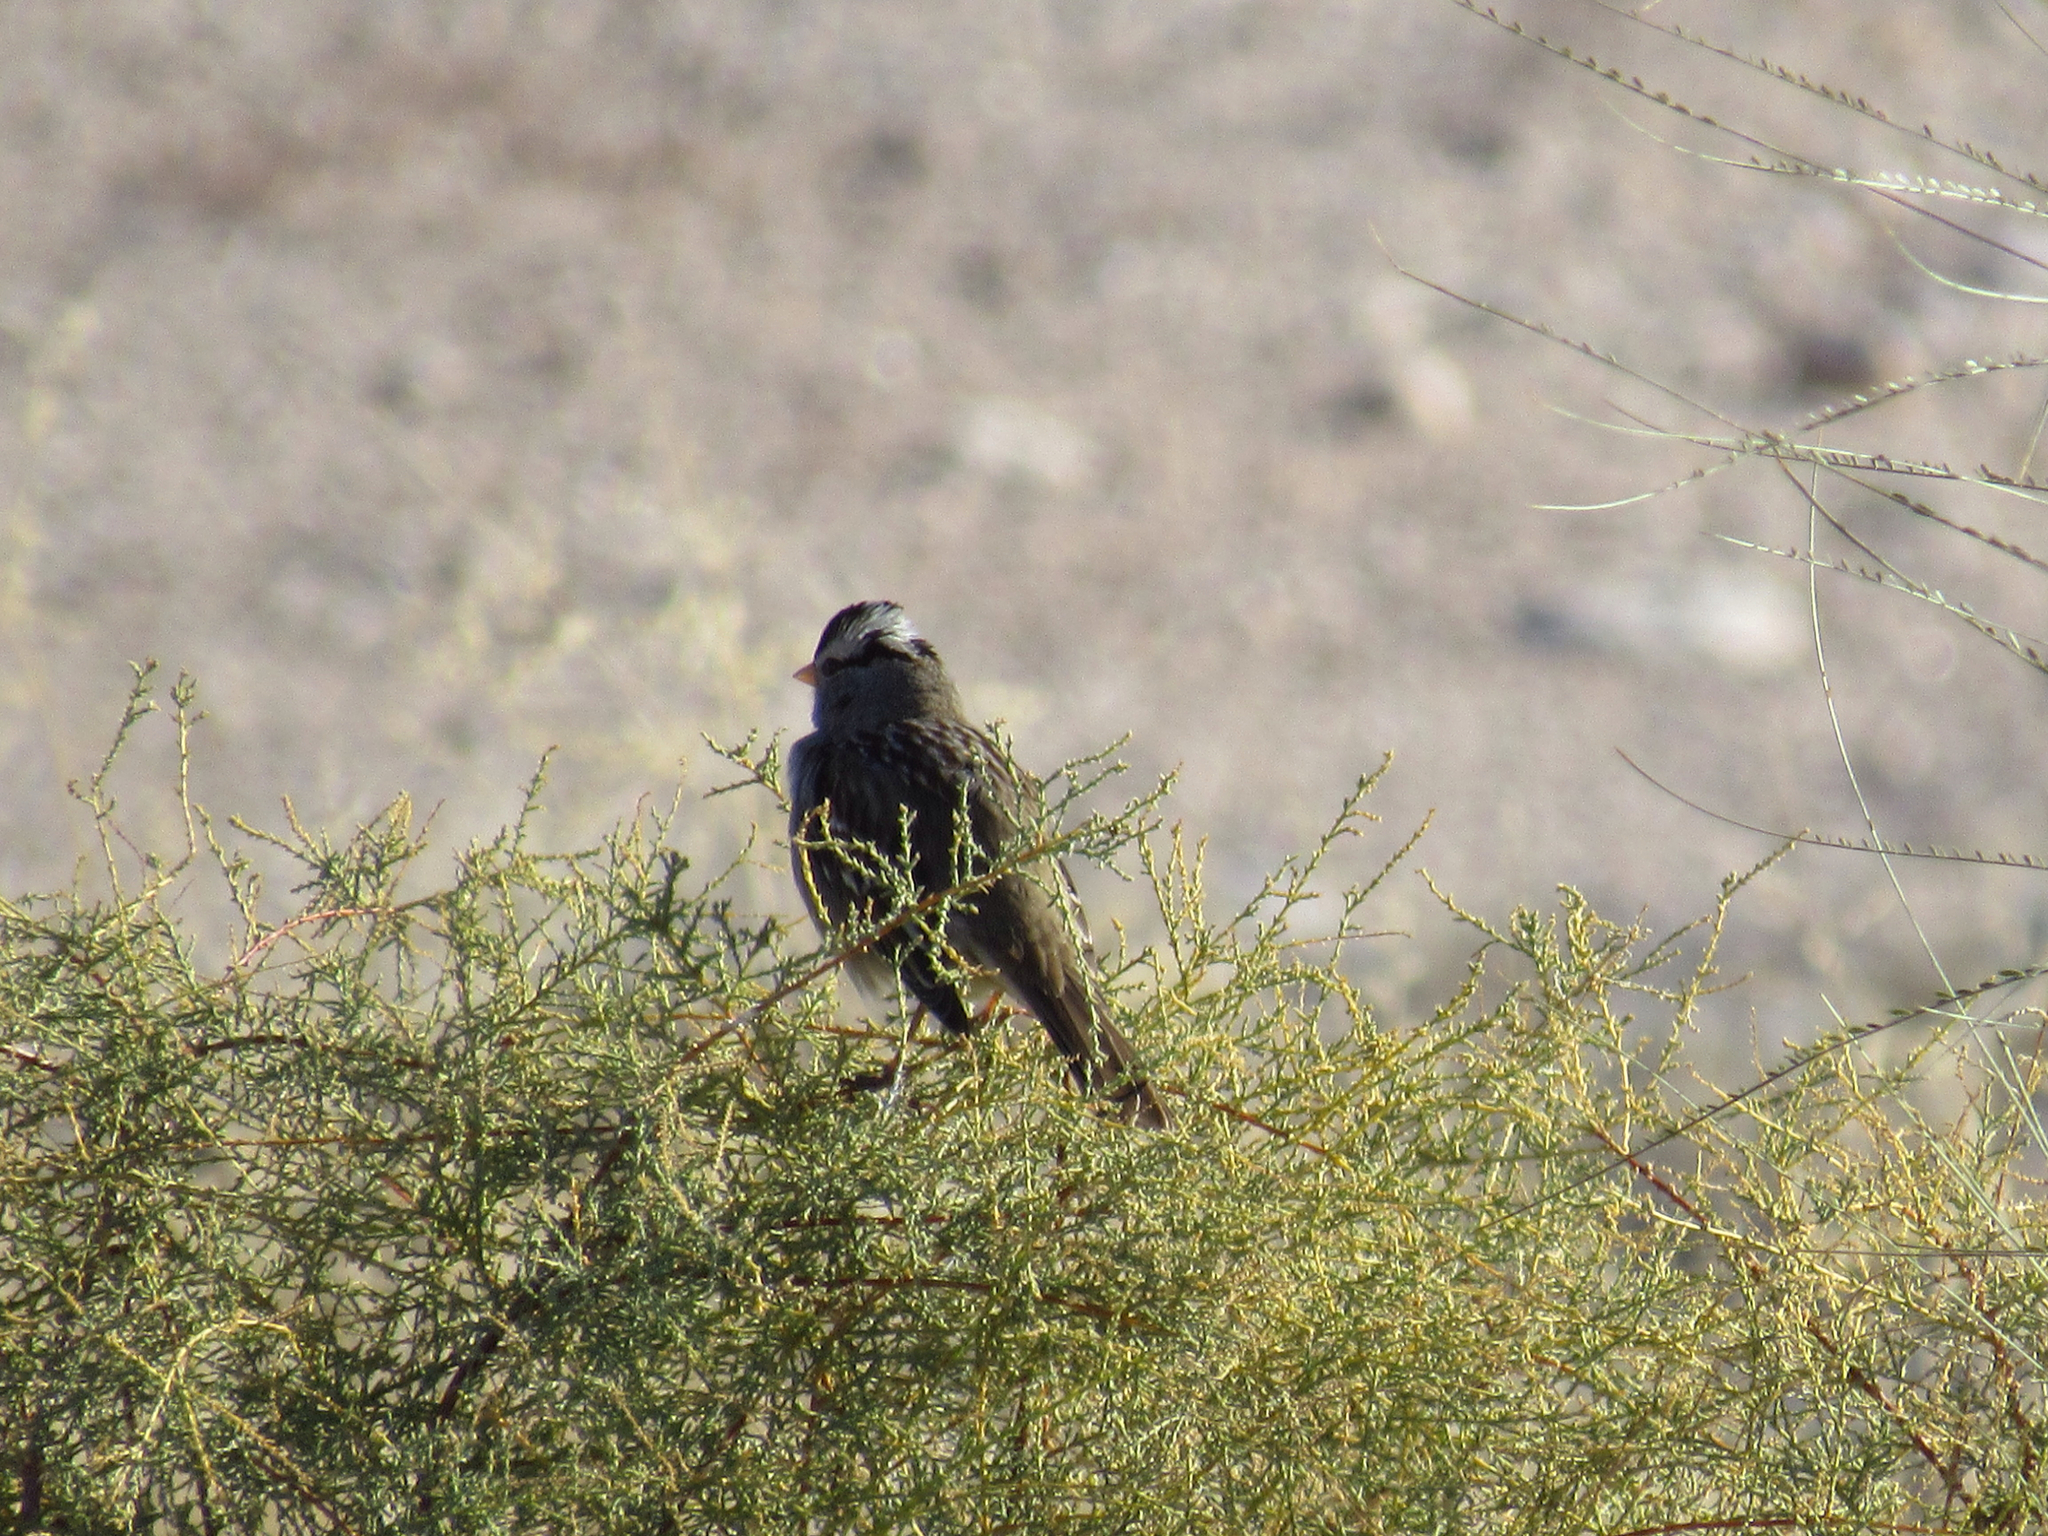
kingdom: Animalia
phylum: Chordata
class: Aves
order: Passeriformes
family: Passerellidae
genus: Zonotrichia
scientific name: Zonotrichia leucophrys
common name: White-crowned sparrow
